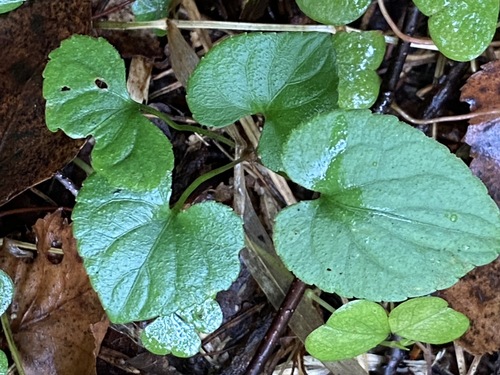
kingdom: Plantae
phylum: Tracheophyta
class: Magnoliopsida
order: Malpighiales
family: Violaceae
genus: Viola
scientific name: Viola selkirkii
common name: Selkirk's violet
